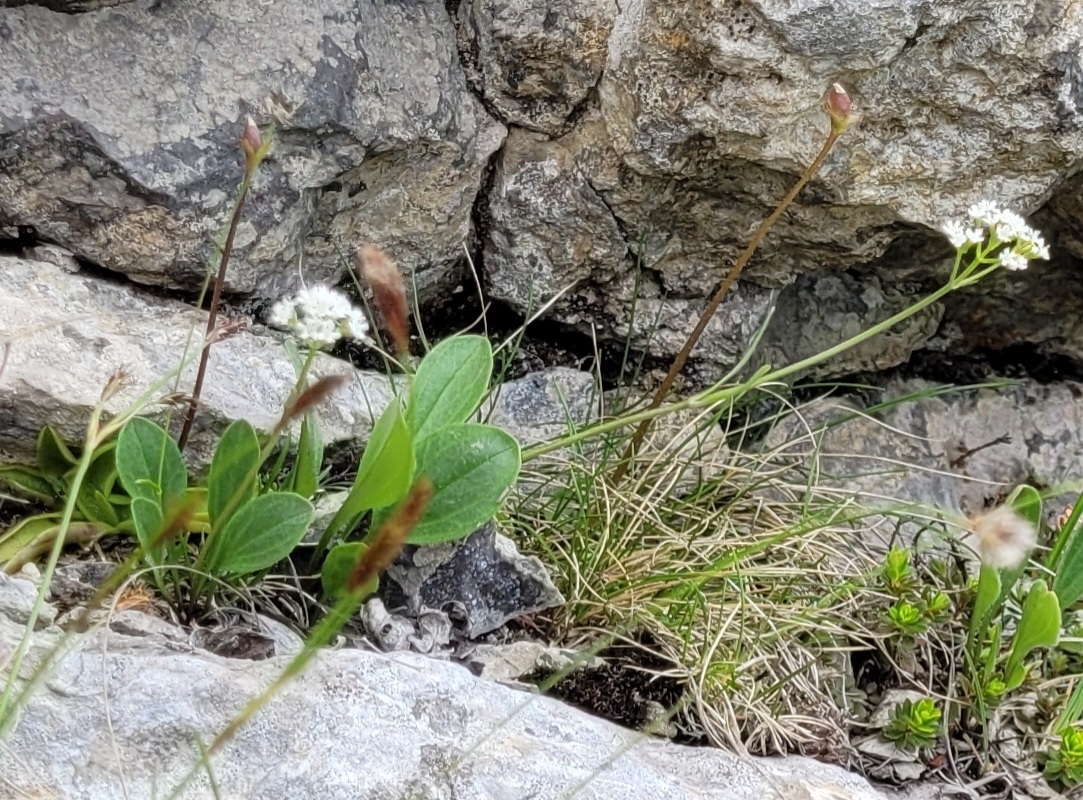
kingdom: Plantae
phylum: Tracheophyta
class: Magnoliopsida
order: Dipsacales
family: Caprifoliaceae
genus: Valeriana
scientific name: Valeriana saxatilis
